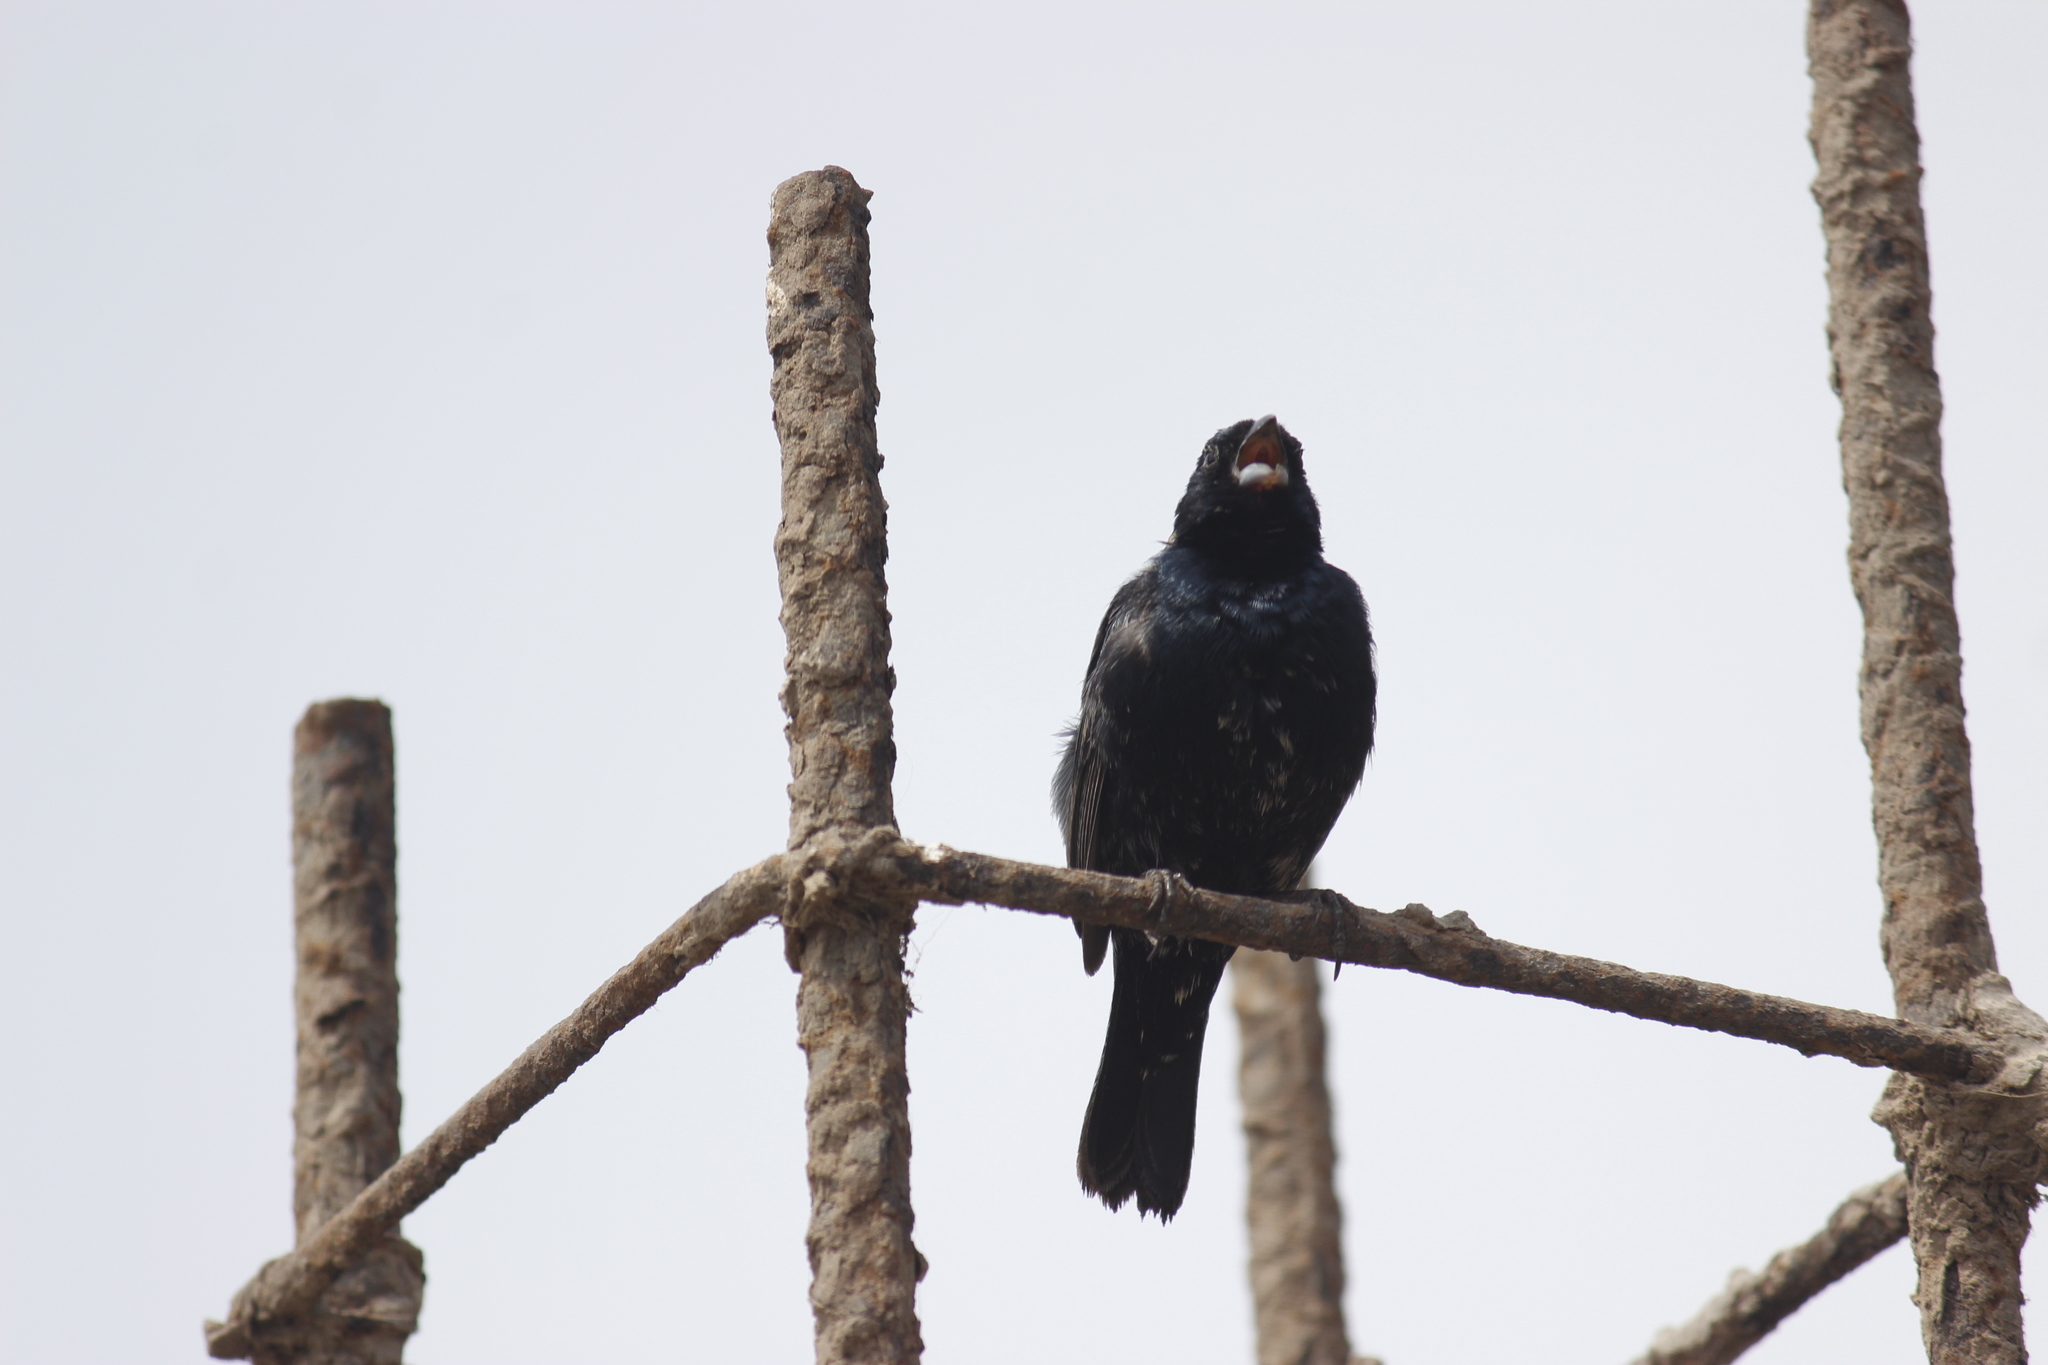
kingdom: Animalia
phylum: Chordata
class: Aves
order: Passeriformes
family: Thraupidae
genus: Volatinia
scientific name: Volatinia jacarina
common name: Blue-black grassquit
